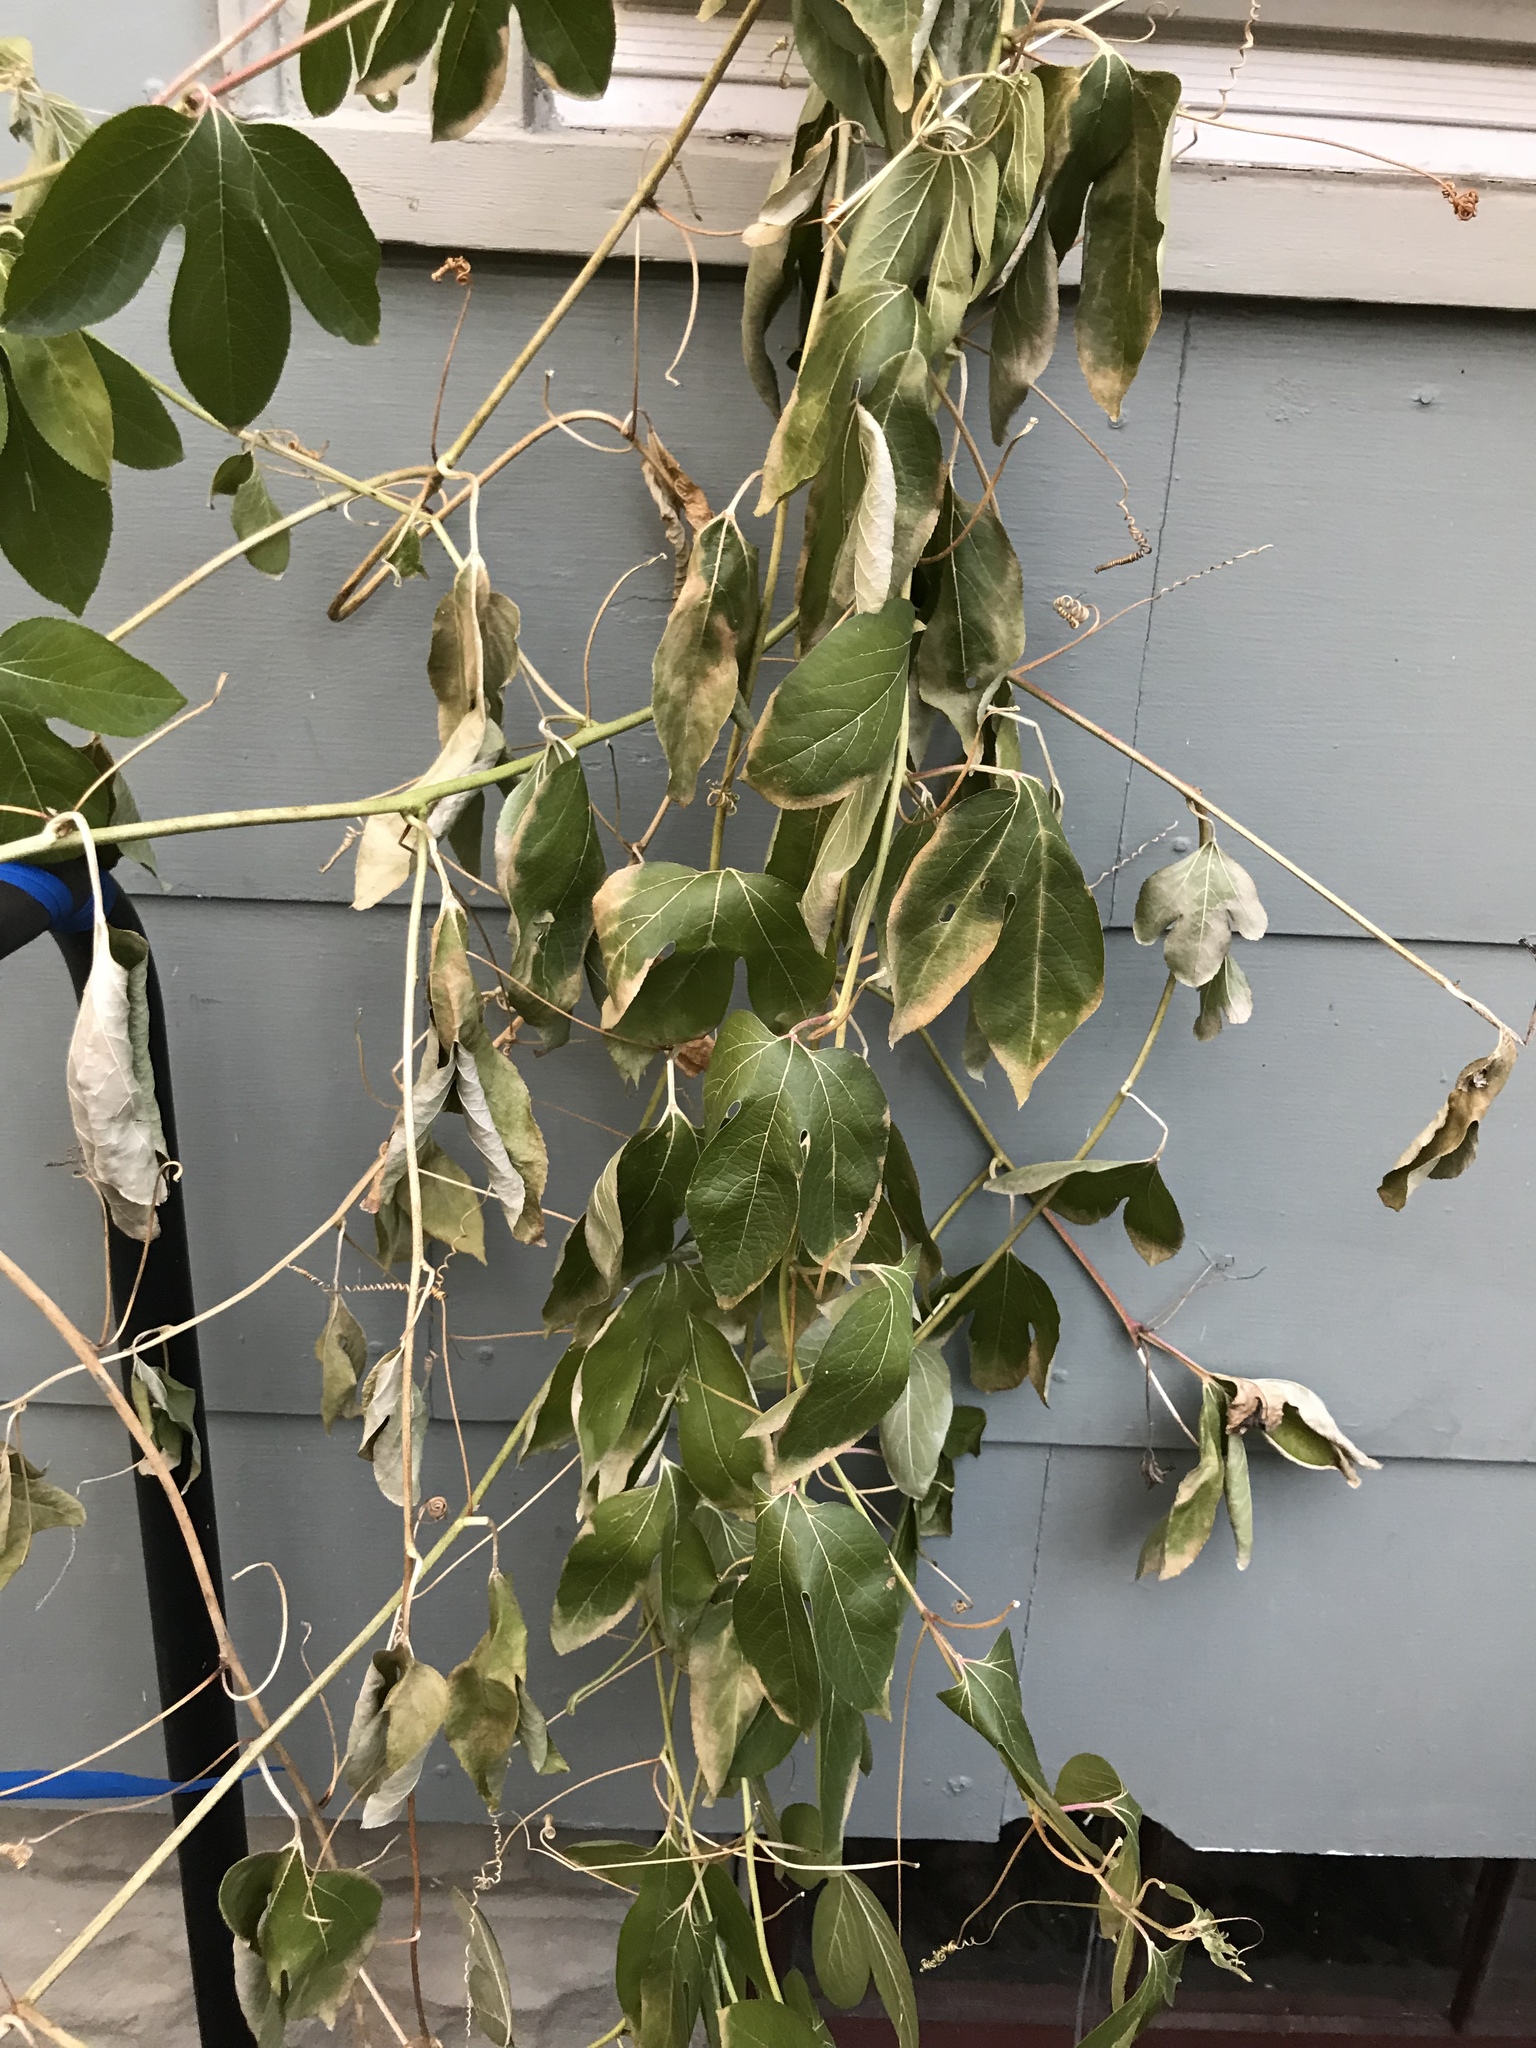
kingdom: Plantae
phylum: Tracheophyta
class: Magnoliopsida
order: Malpighiales
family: Passifloraceae
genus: Passiflora
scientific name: Passiflora incarnata
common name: Apricot-vine
